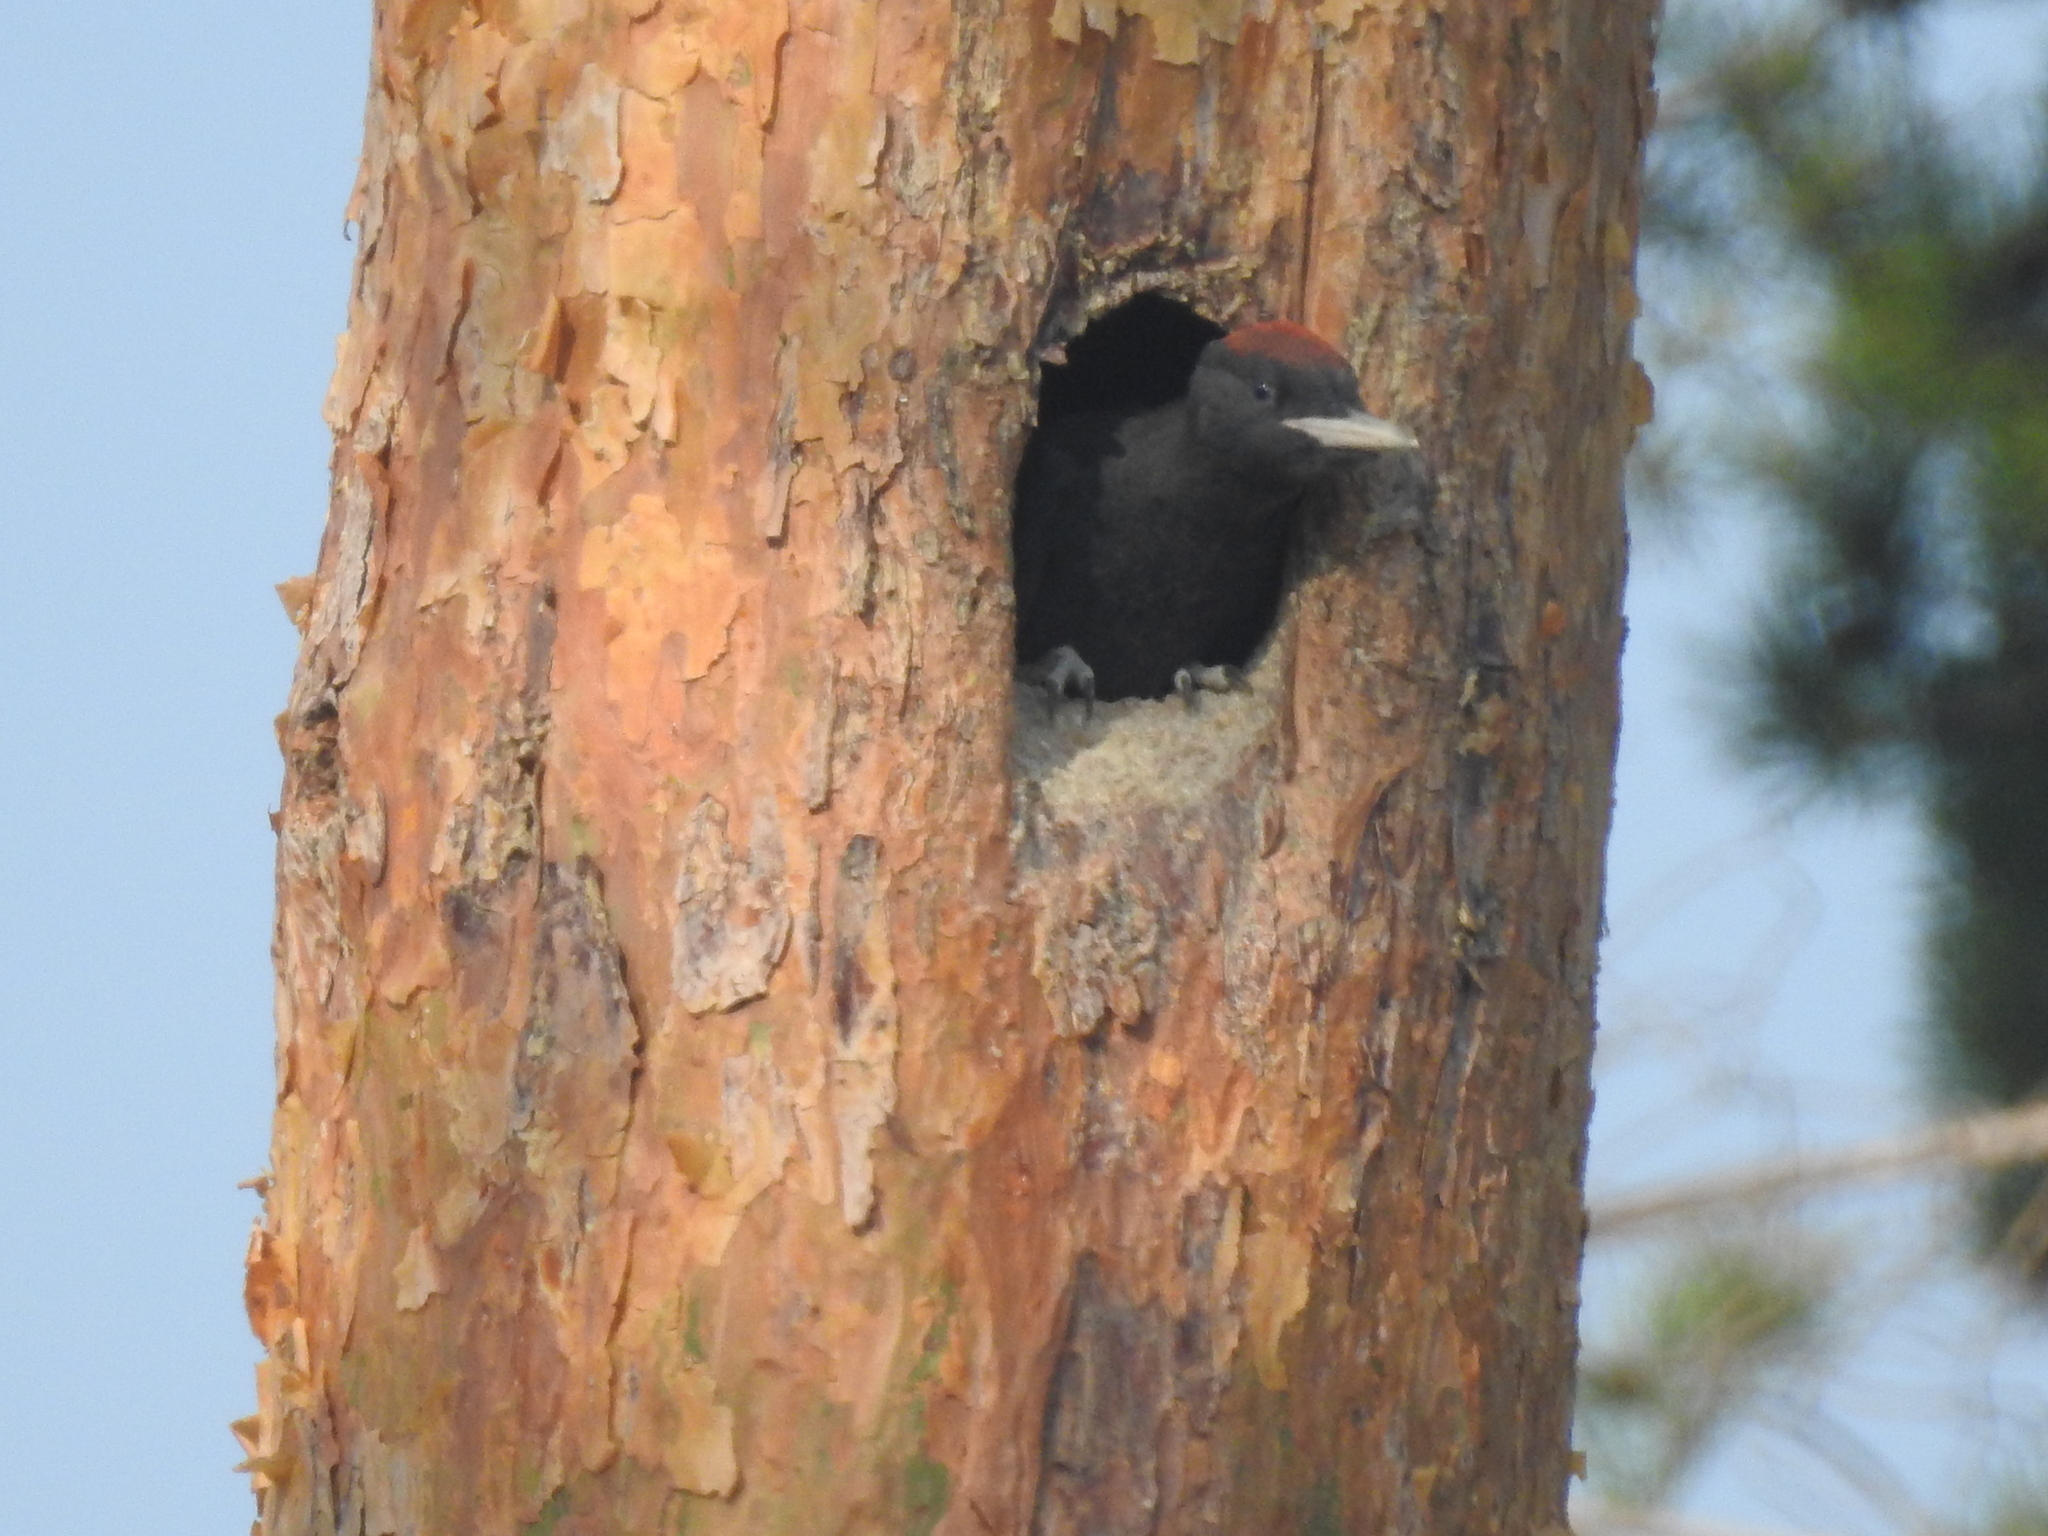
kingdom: Animalia
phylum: Chordata
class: Aves
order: Piciformes
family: Picidae
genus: Dryocopus
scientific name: Dryocopus martius
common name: Black woodpecker
